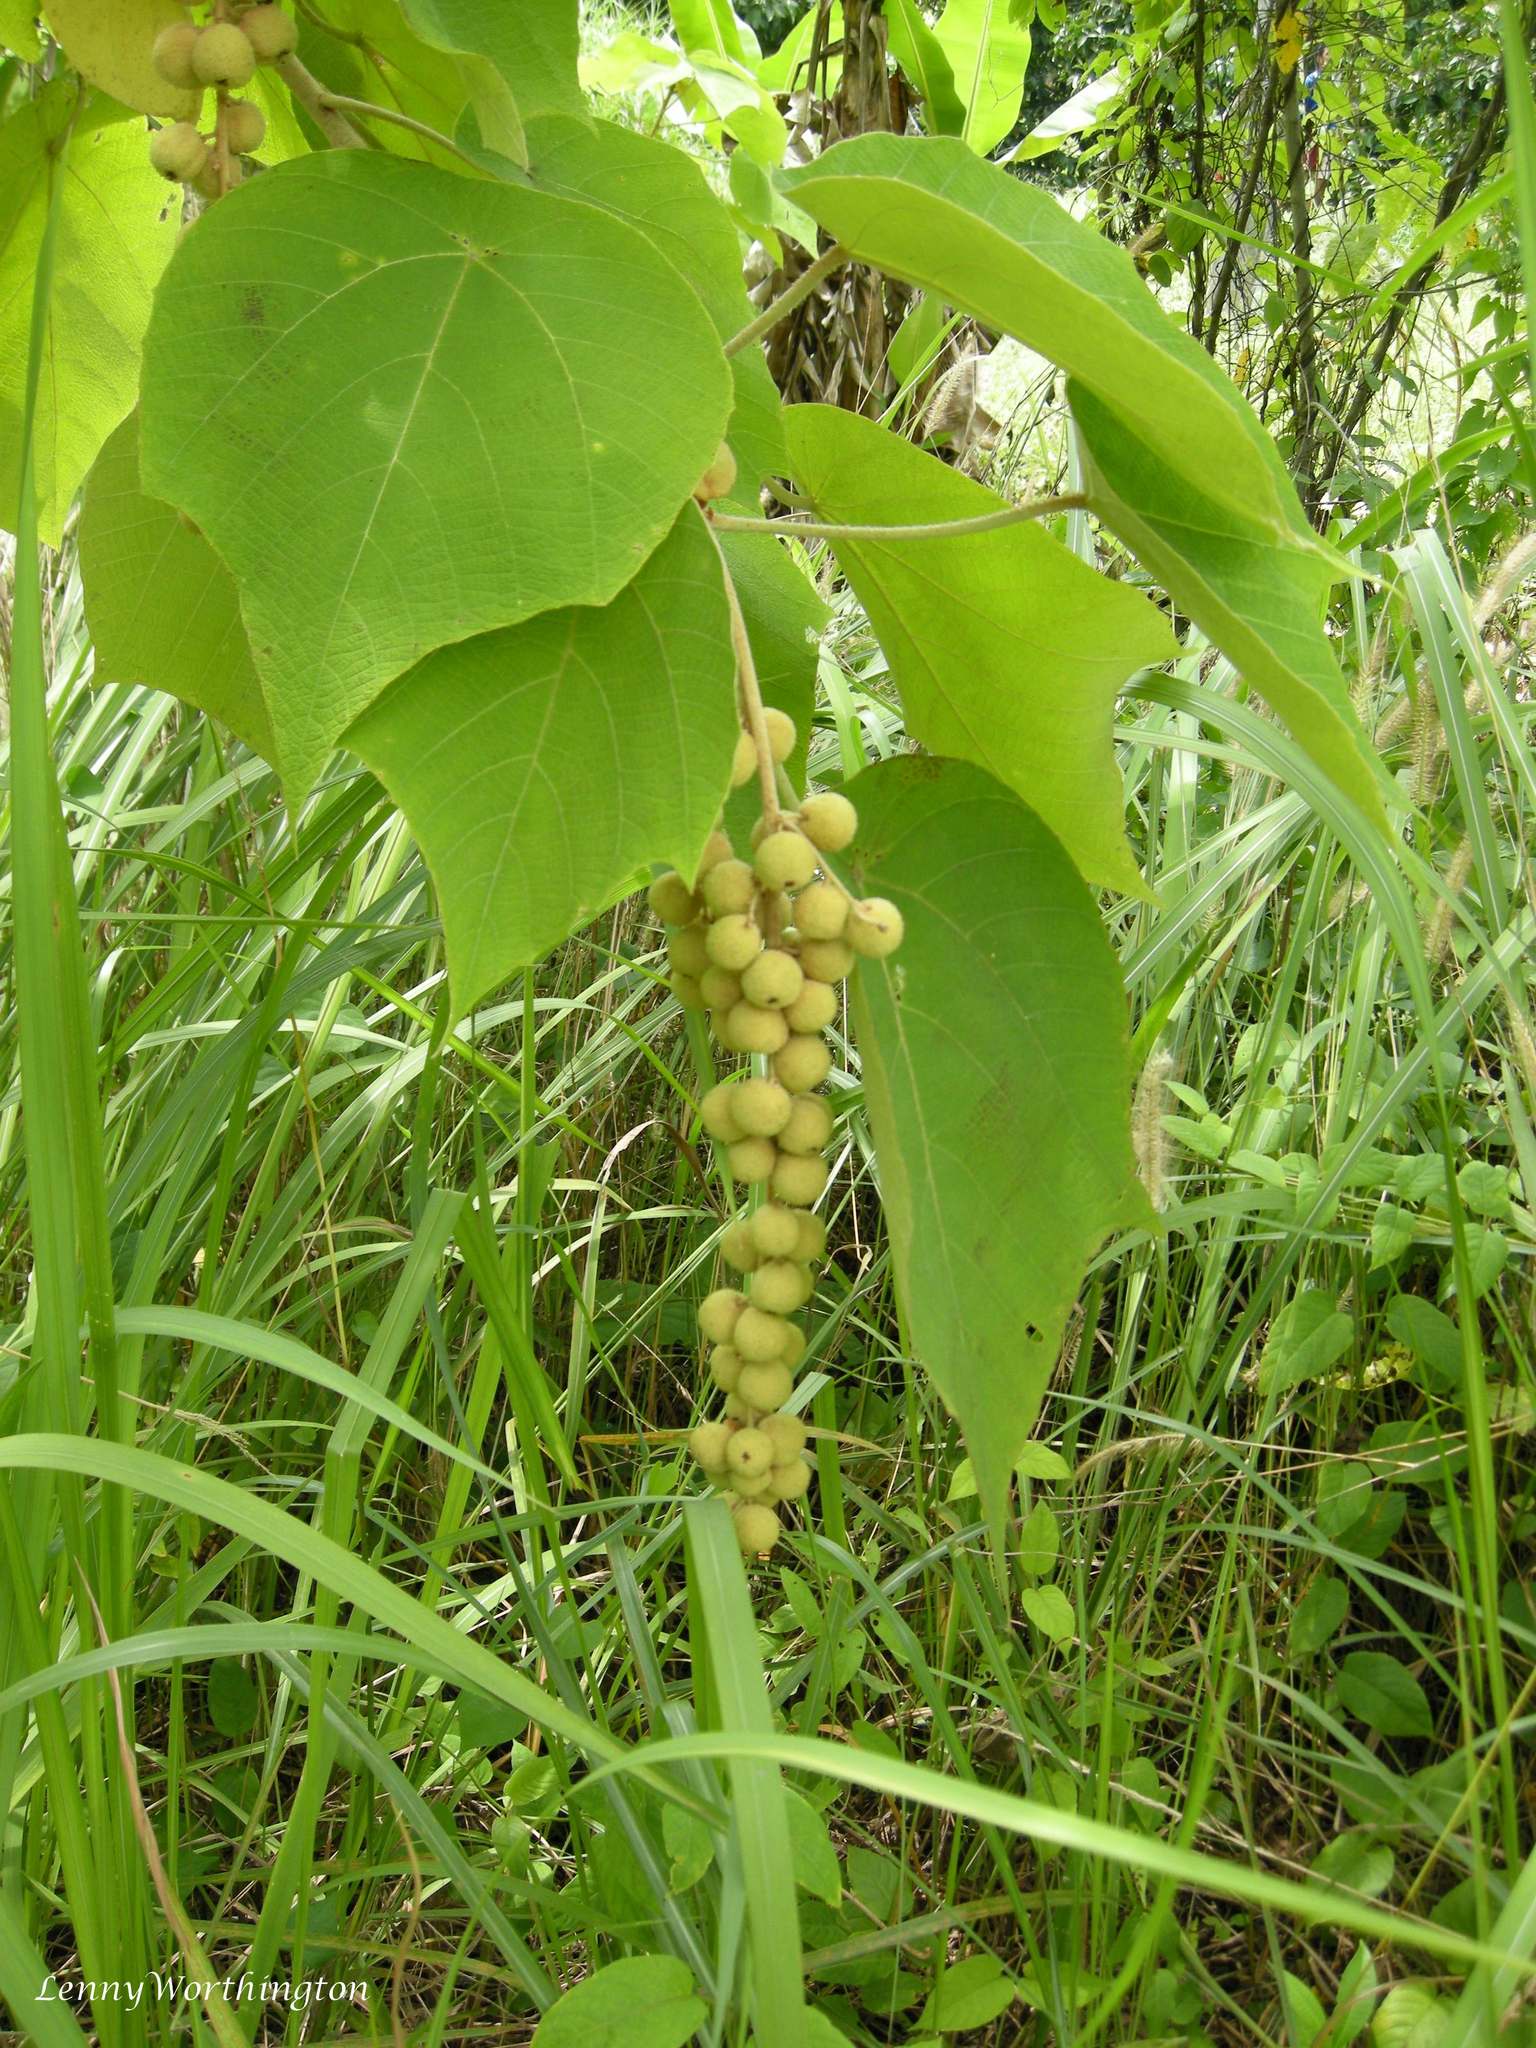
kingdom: Plantae
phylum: Tracheophyta
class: Magnoliopsida
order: Malpighiales
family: Euphorbiaceae
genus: Mallotus
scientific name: Mallotus barbatus
